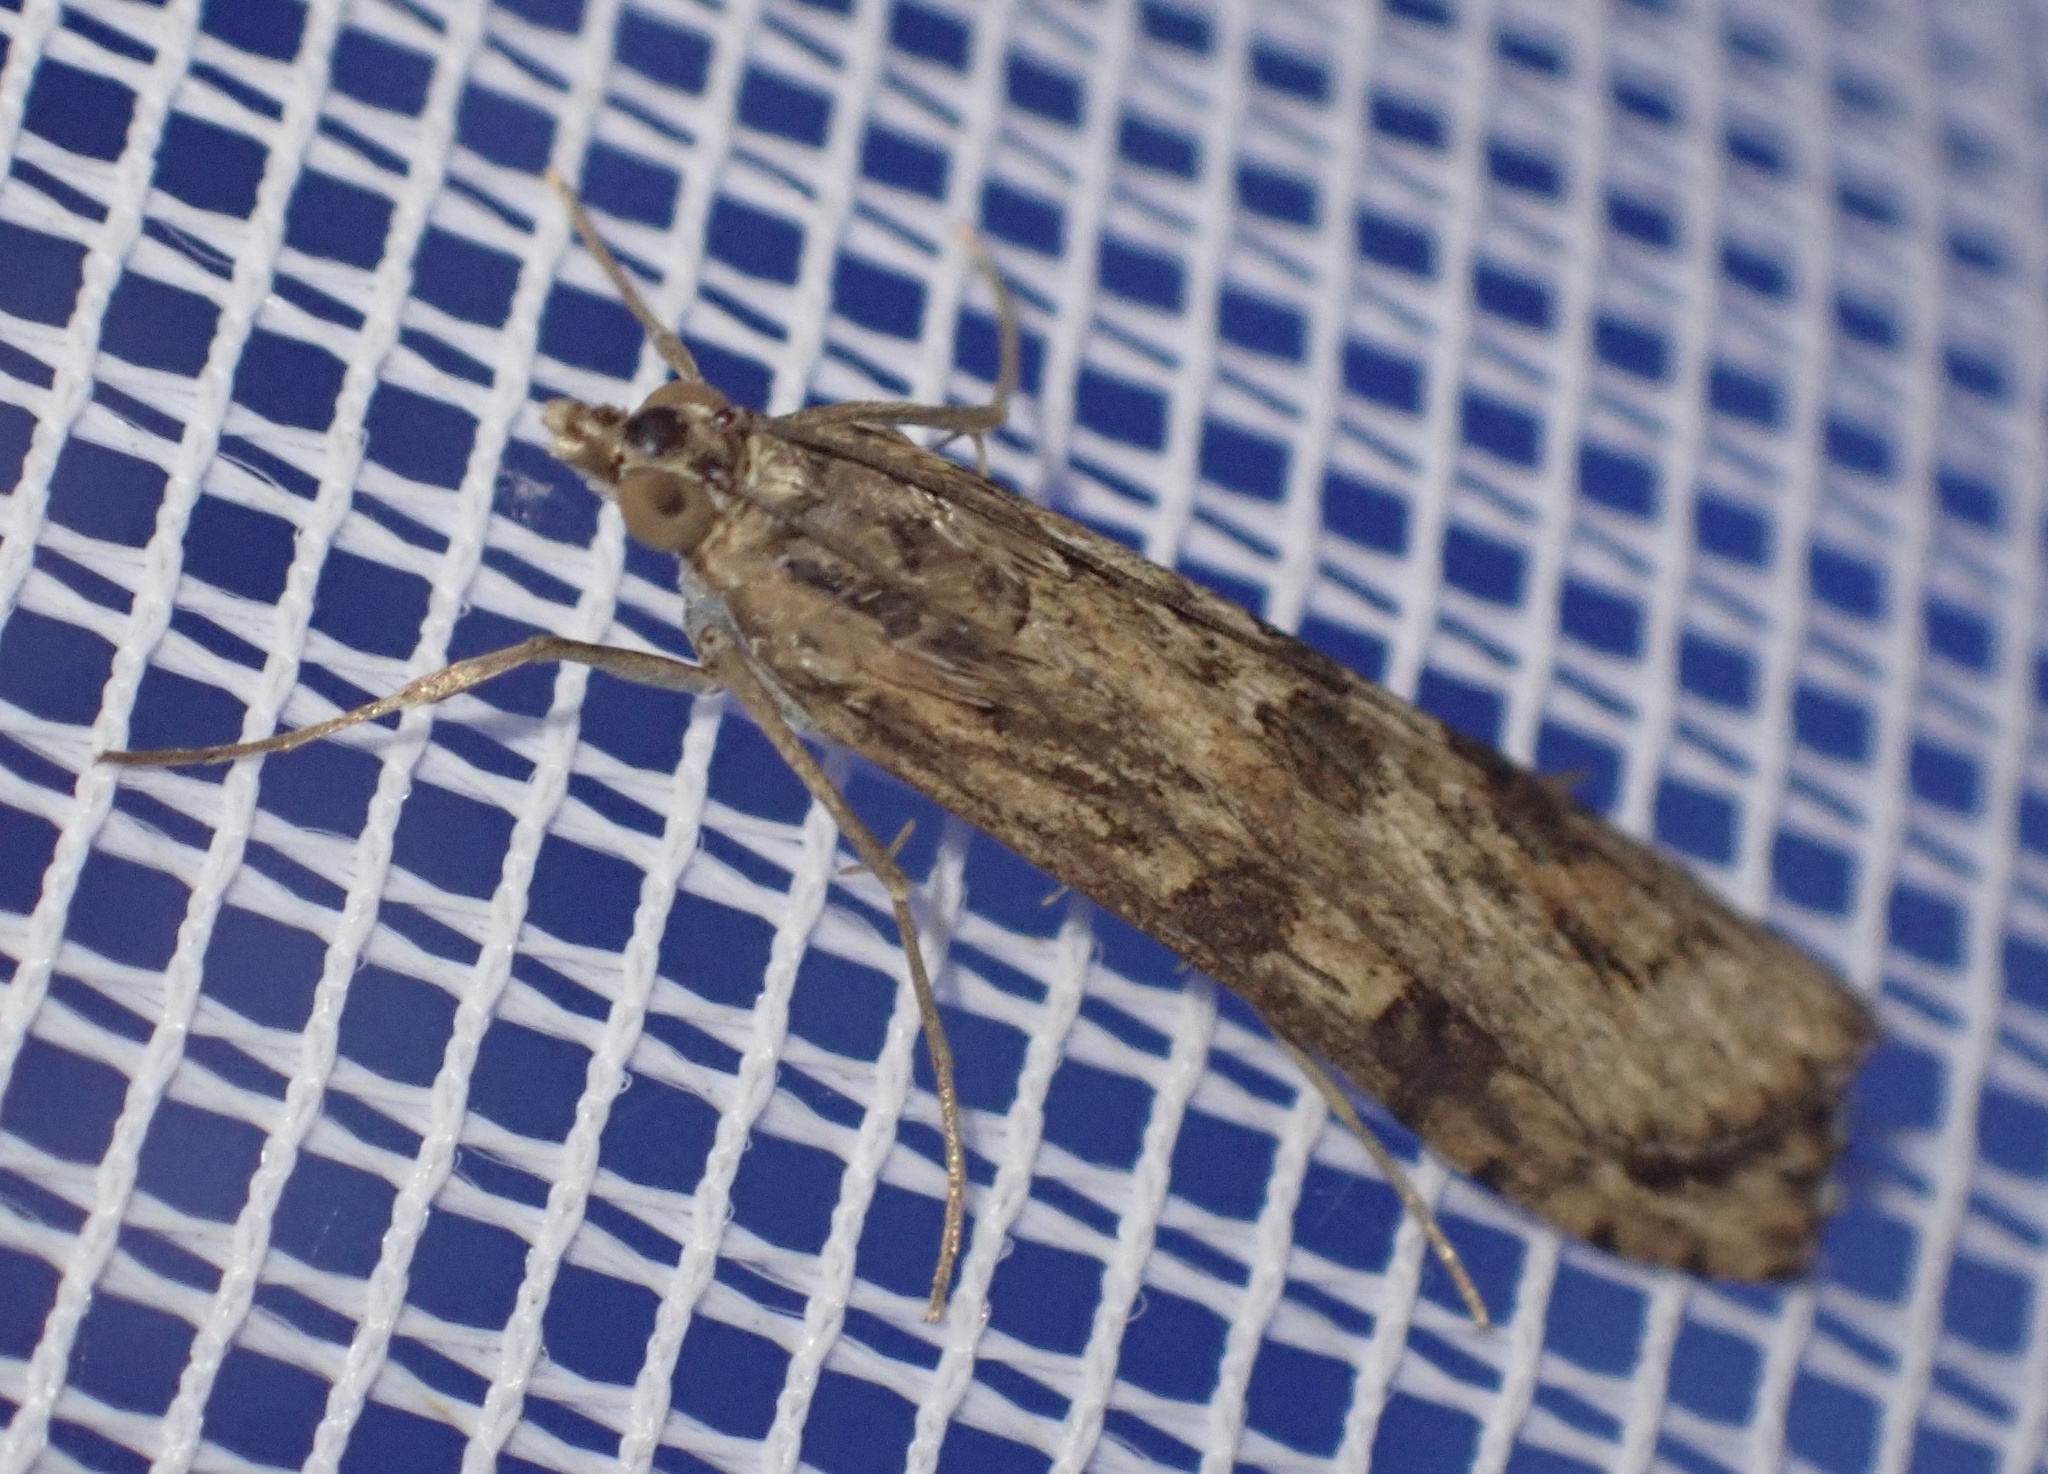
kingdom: Animalia
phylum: Arthropoda
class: Insecta
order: Lepidoptera
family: Crambidae
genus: Nomophila
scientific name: Nomophila noctuella
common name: Rush veneer
